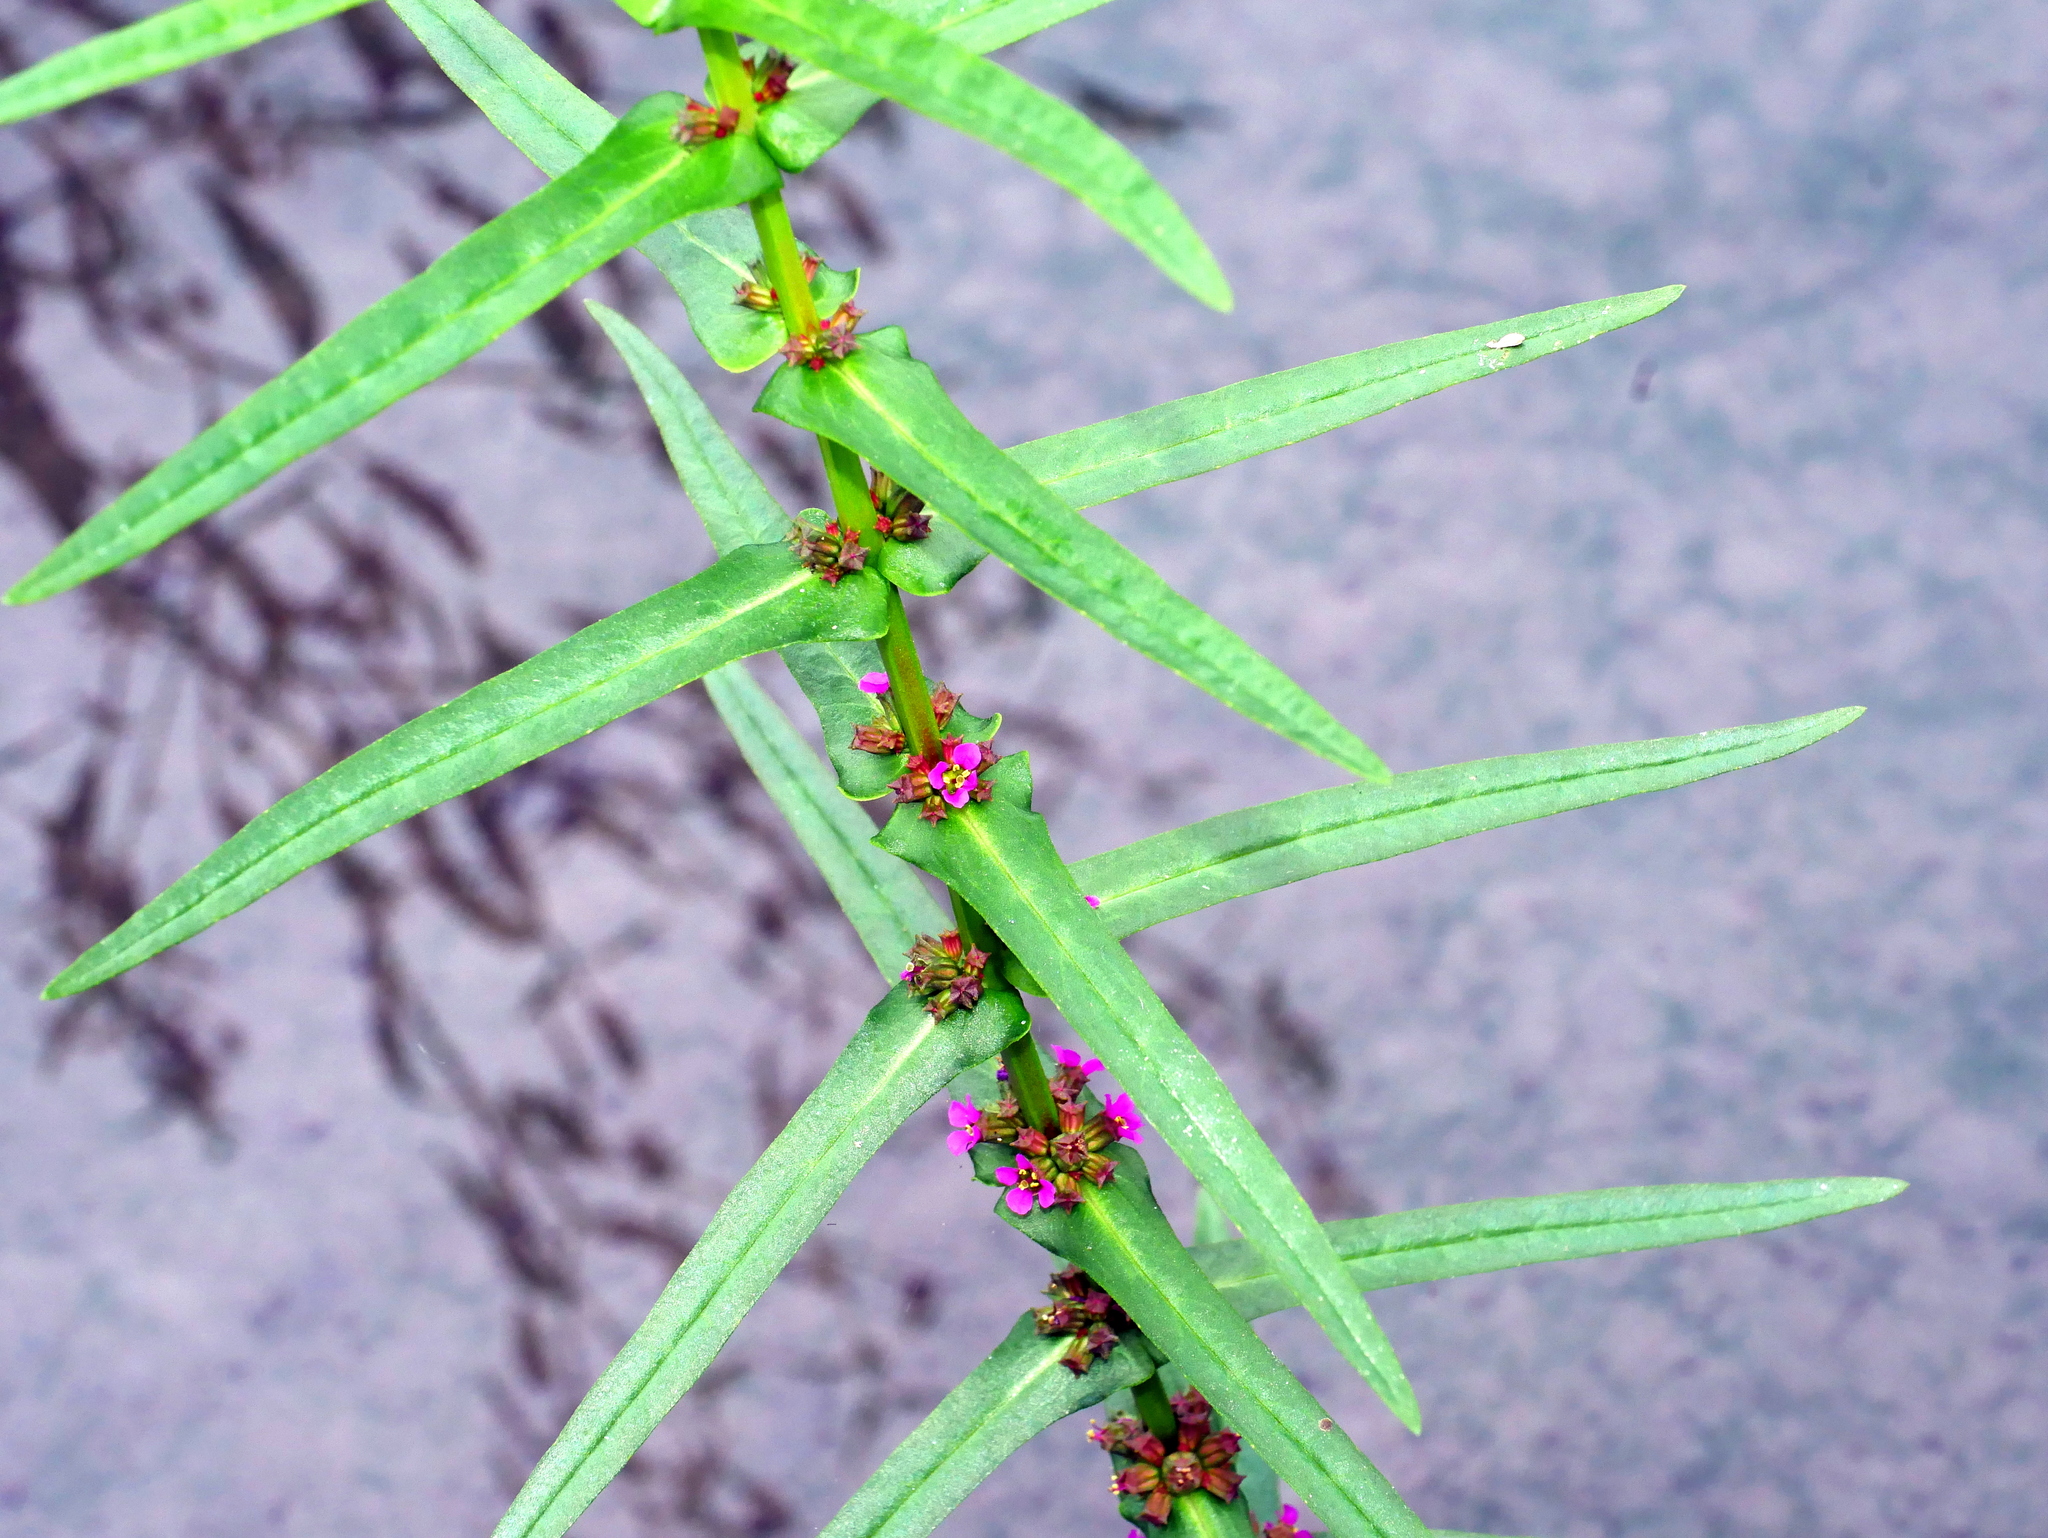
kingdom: Plantae
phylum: Tracheophyta
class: Magnoliopsida
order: Myrtales
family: Lythraceae
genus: Ammannia
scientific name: Ammannia coccinea
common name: Valley redstem
